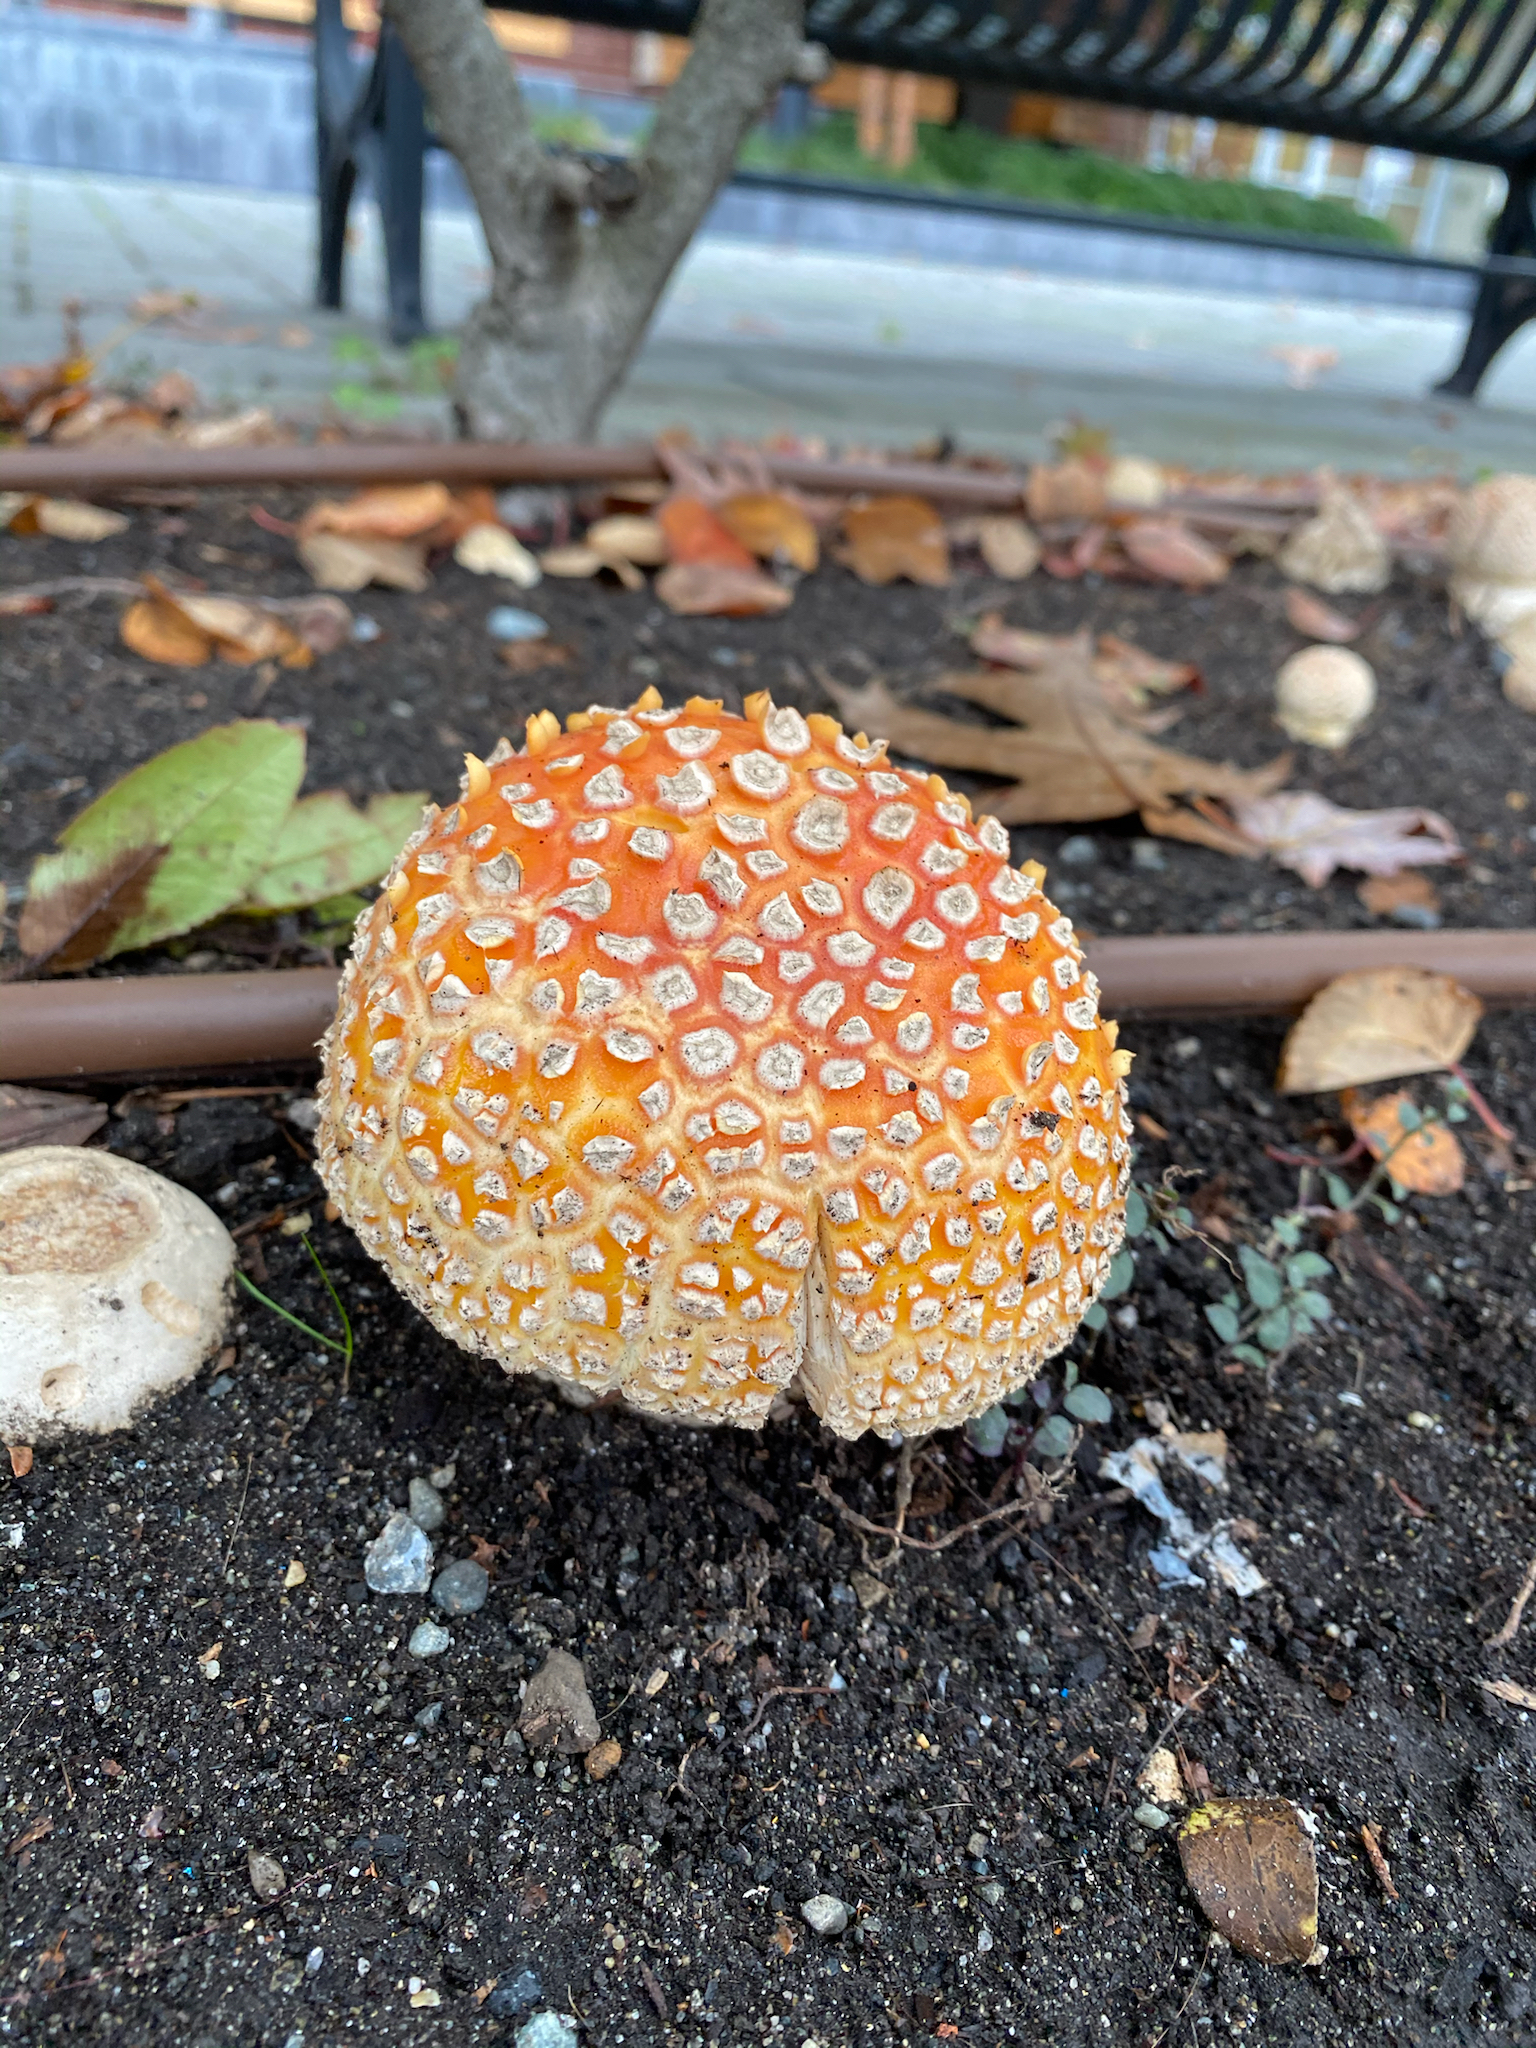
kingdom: Fungi
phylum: Basidiomycota
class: Agaricomycetes
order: Agaricales
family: Amanitaceae
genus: Amanita
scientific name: Amanita muscaria
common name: Fly agaric
